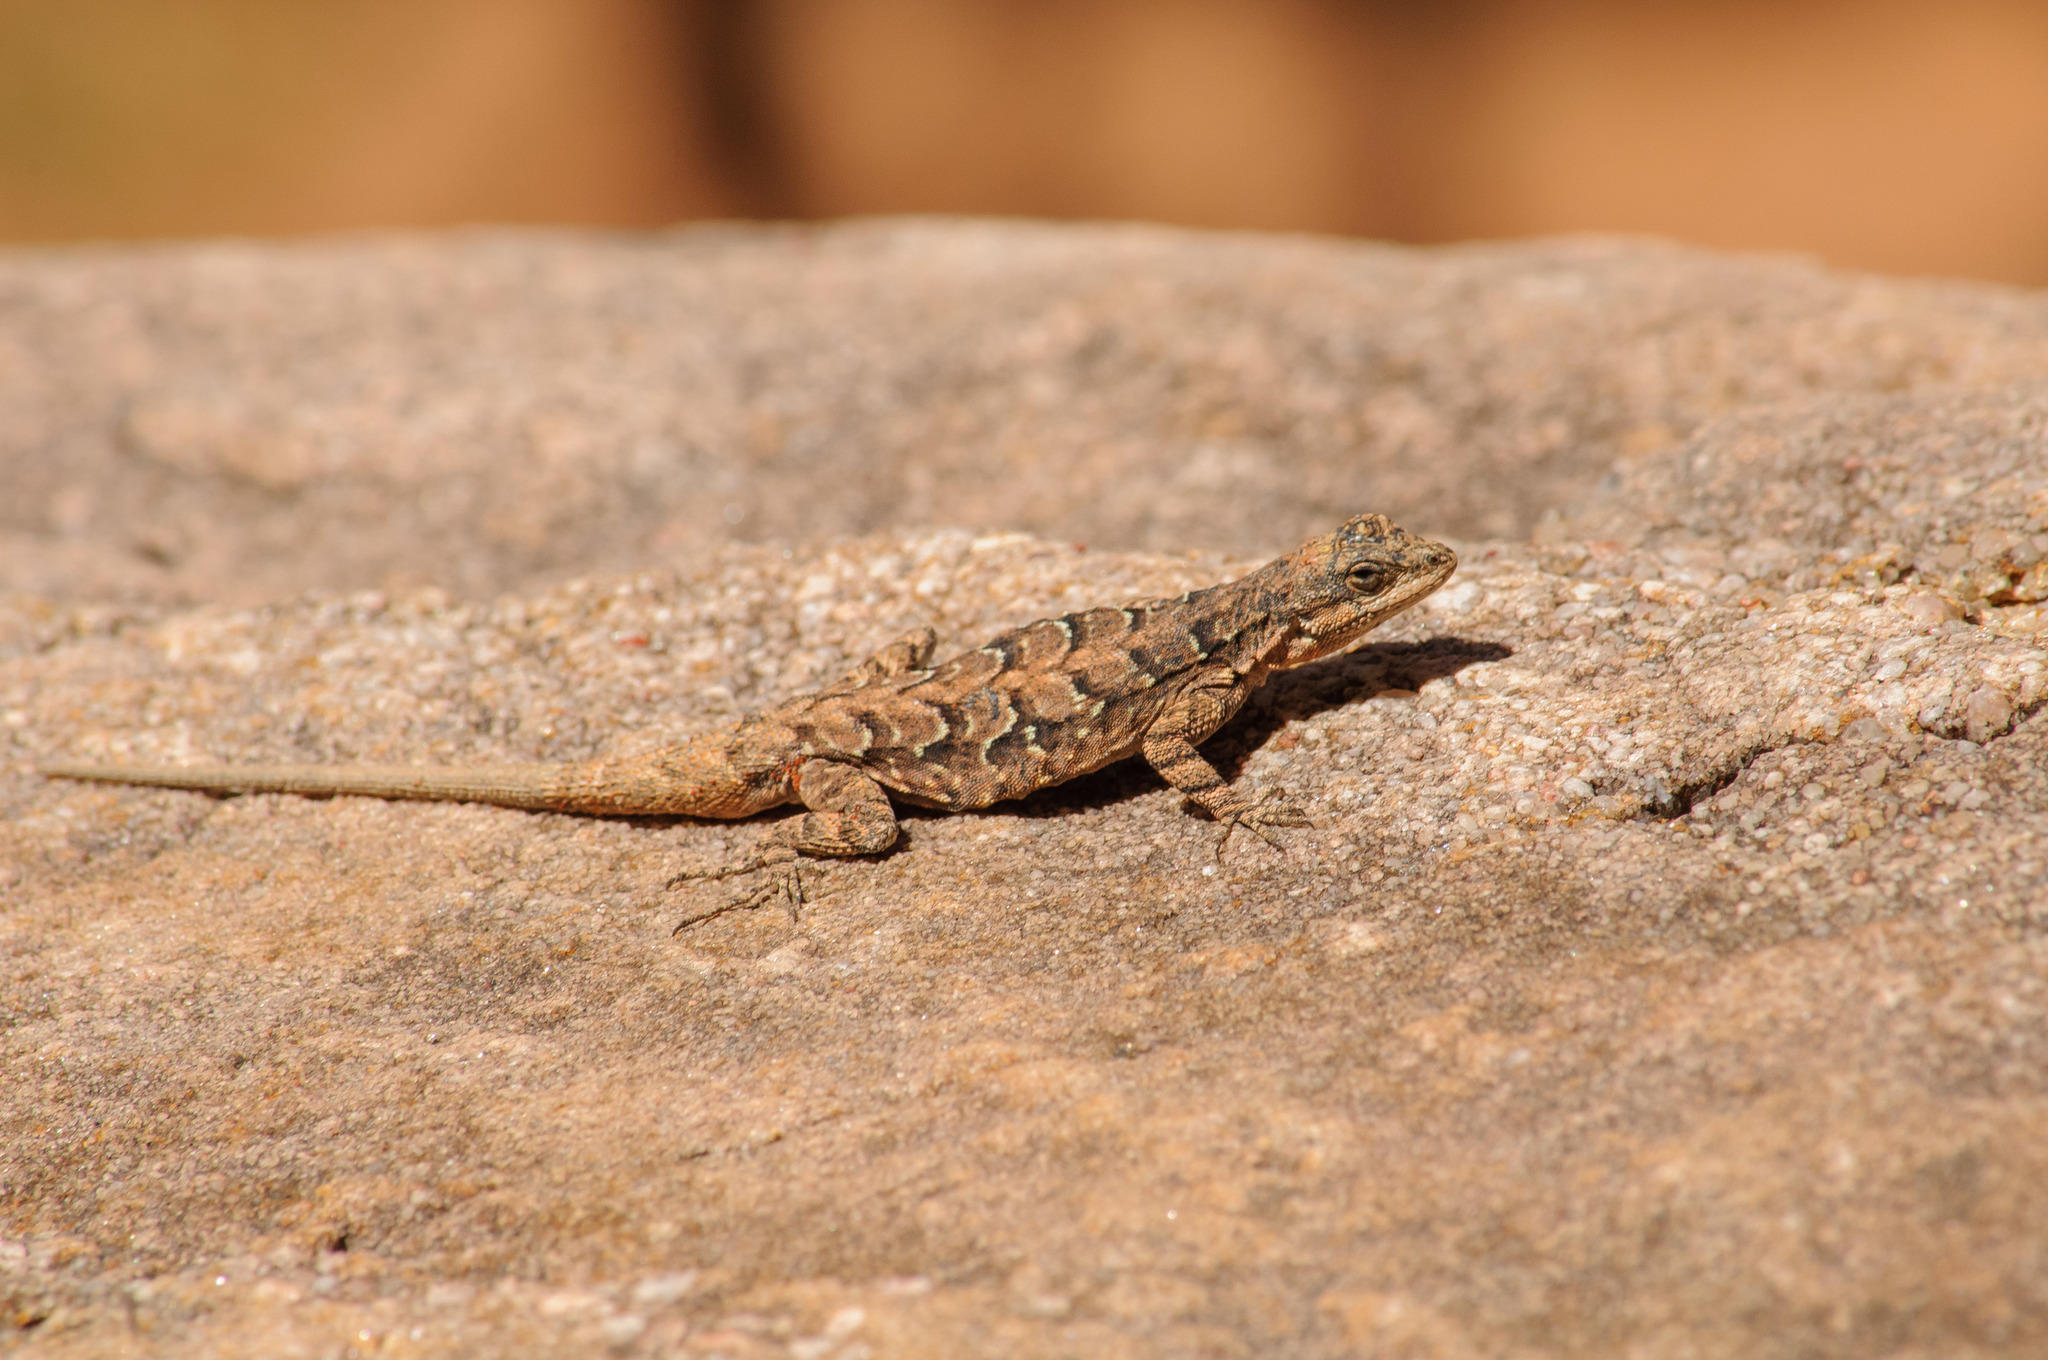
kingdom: Animalia
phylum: Chordata
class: Squamata
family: Phrynosomatidae
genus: Urosaurus
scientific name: Urosaurus ornatus
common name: Ornate tree lizard
